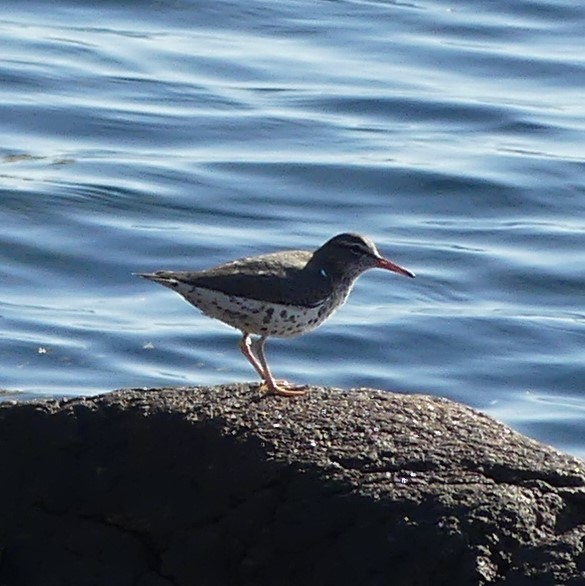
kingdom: Animalia
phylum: Chordata
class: Aves
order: Charadriiformes
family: Scolopacidae
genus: Actitis
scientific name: Actitis macularius
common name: Spotted sandpiper
